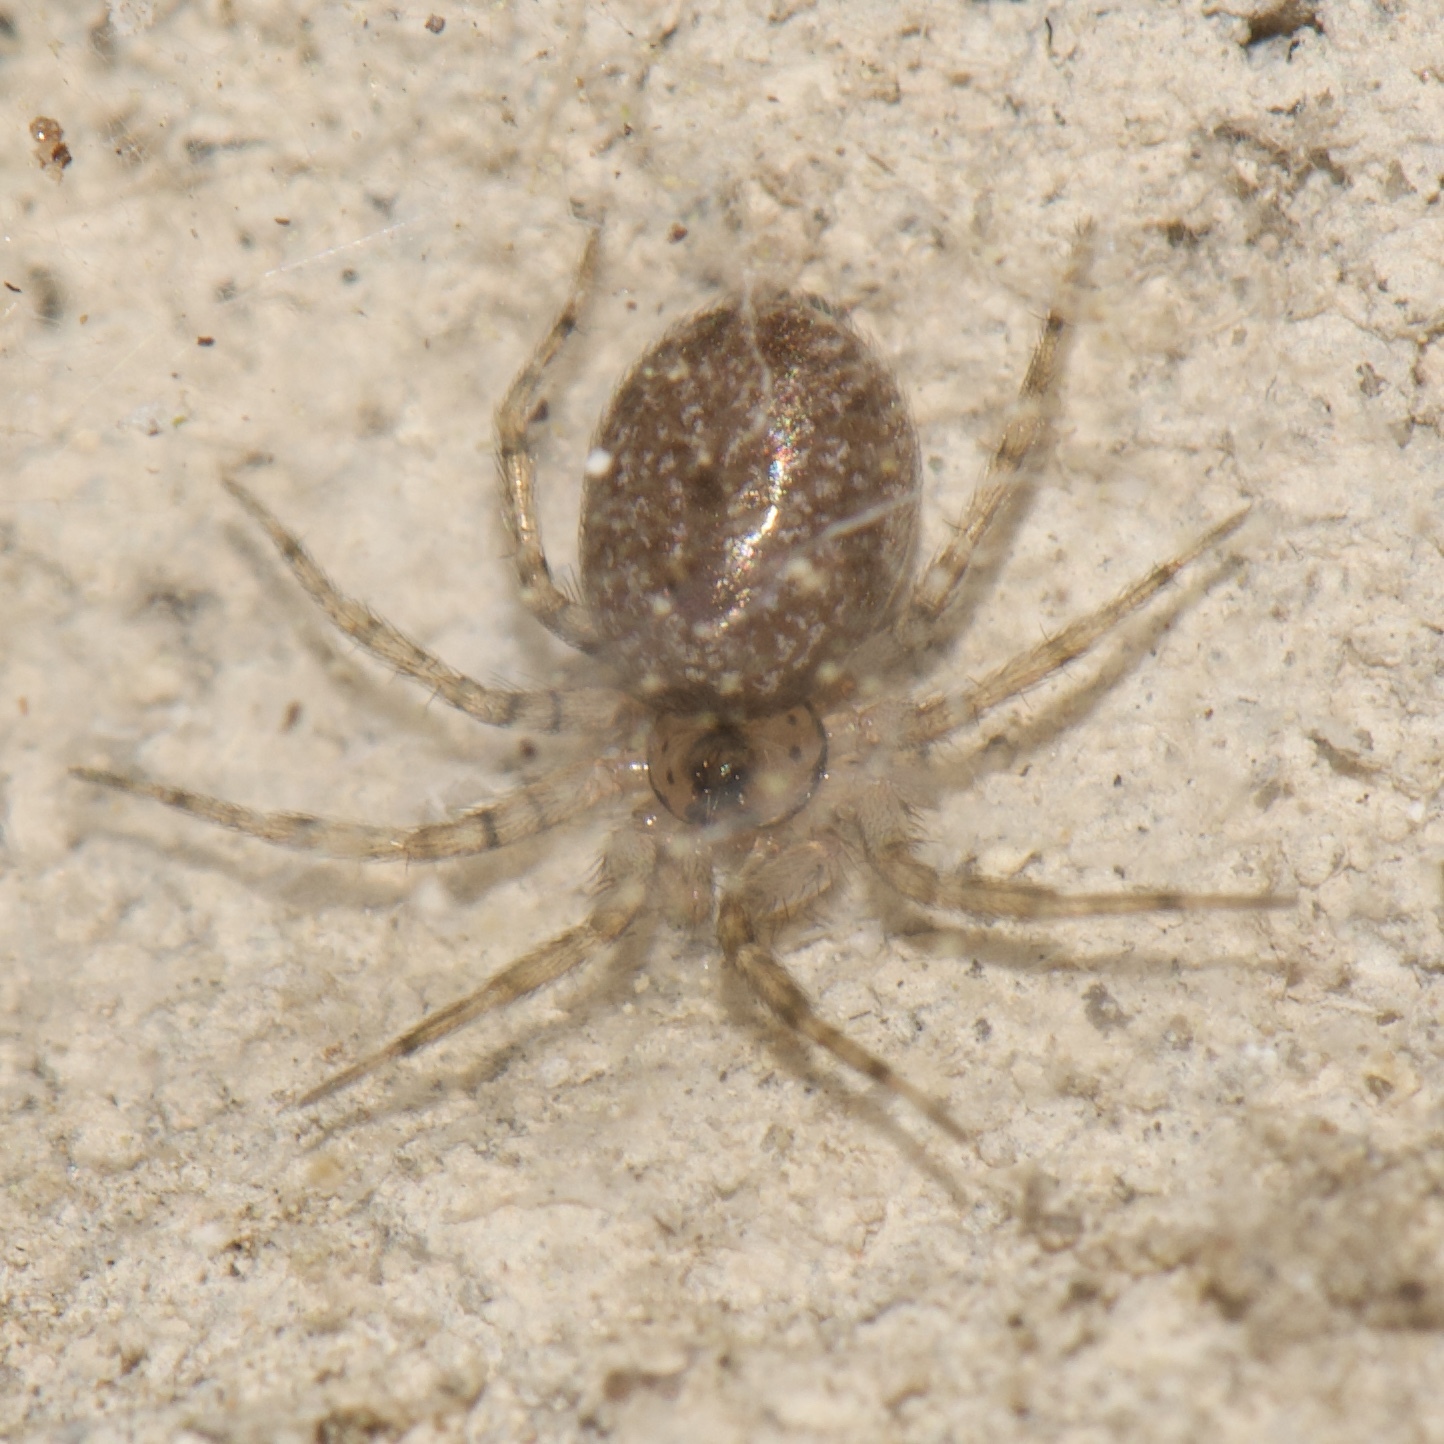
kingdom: Animalia
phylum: Arthropoda
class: Arachnida
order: Araneae
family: Oecobiidae
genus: Oecobius
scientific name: Oecobius navus
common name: Flatmesh weaver
